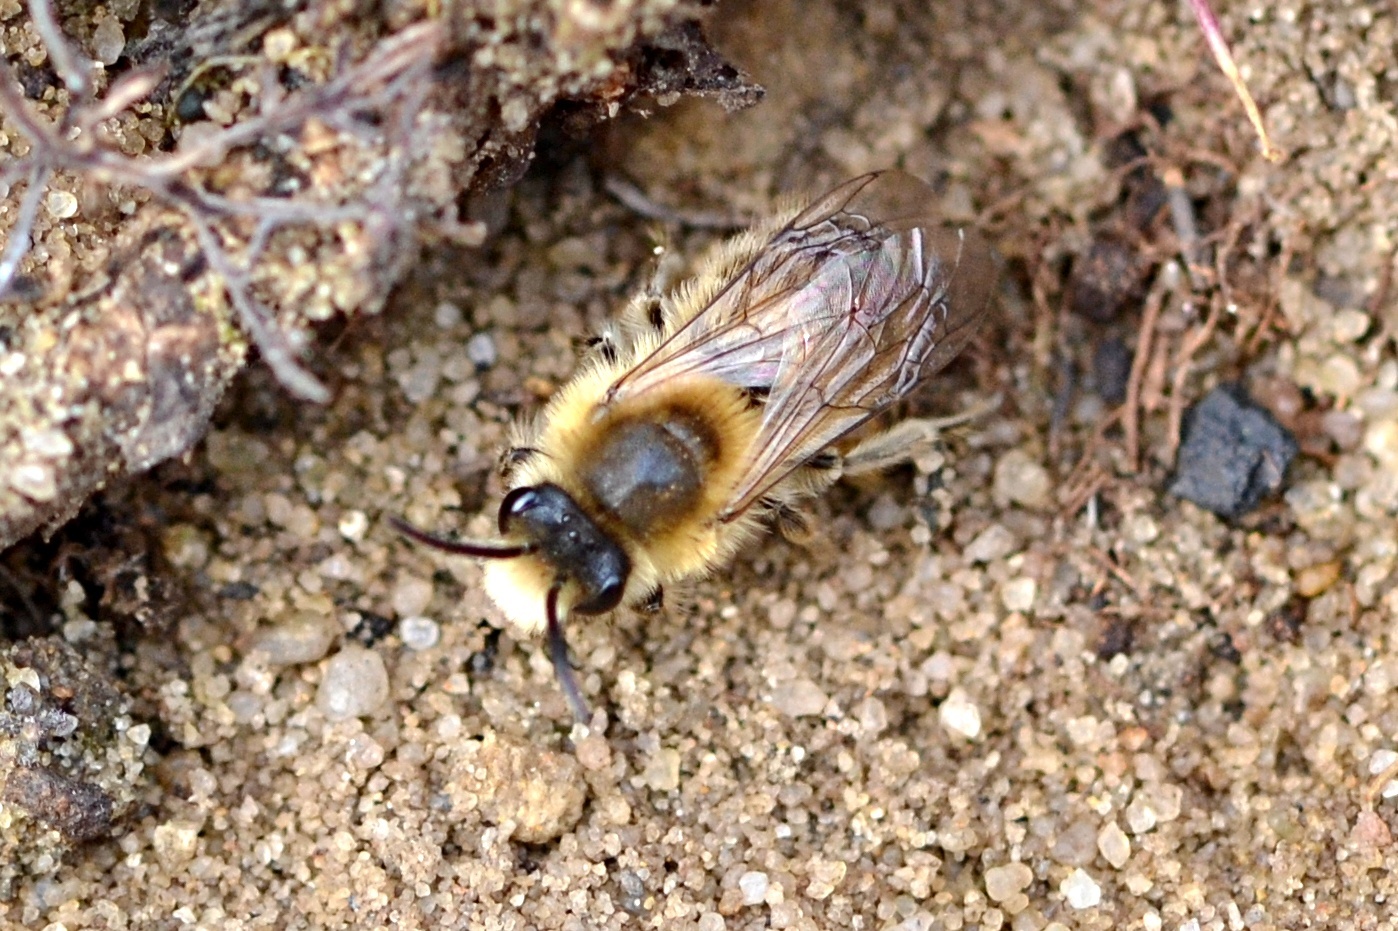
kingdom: Animalia
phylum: Arthropoda
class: Insecta
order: Hymenoptera
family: Colletidae
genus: Colletes
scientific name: Colletes cunicularius
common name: Early colletes
